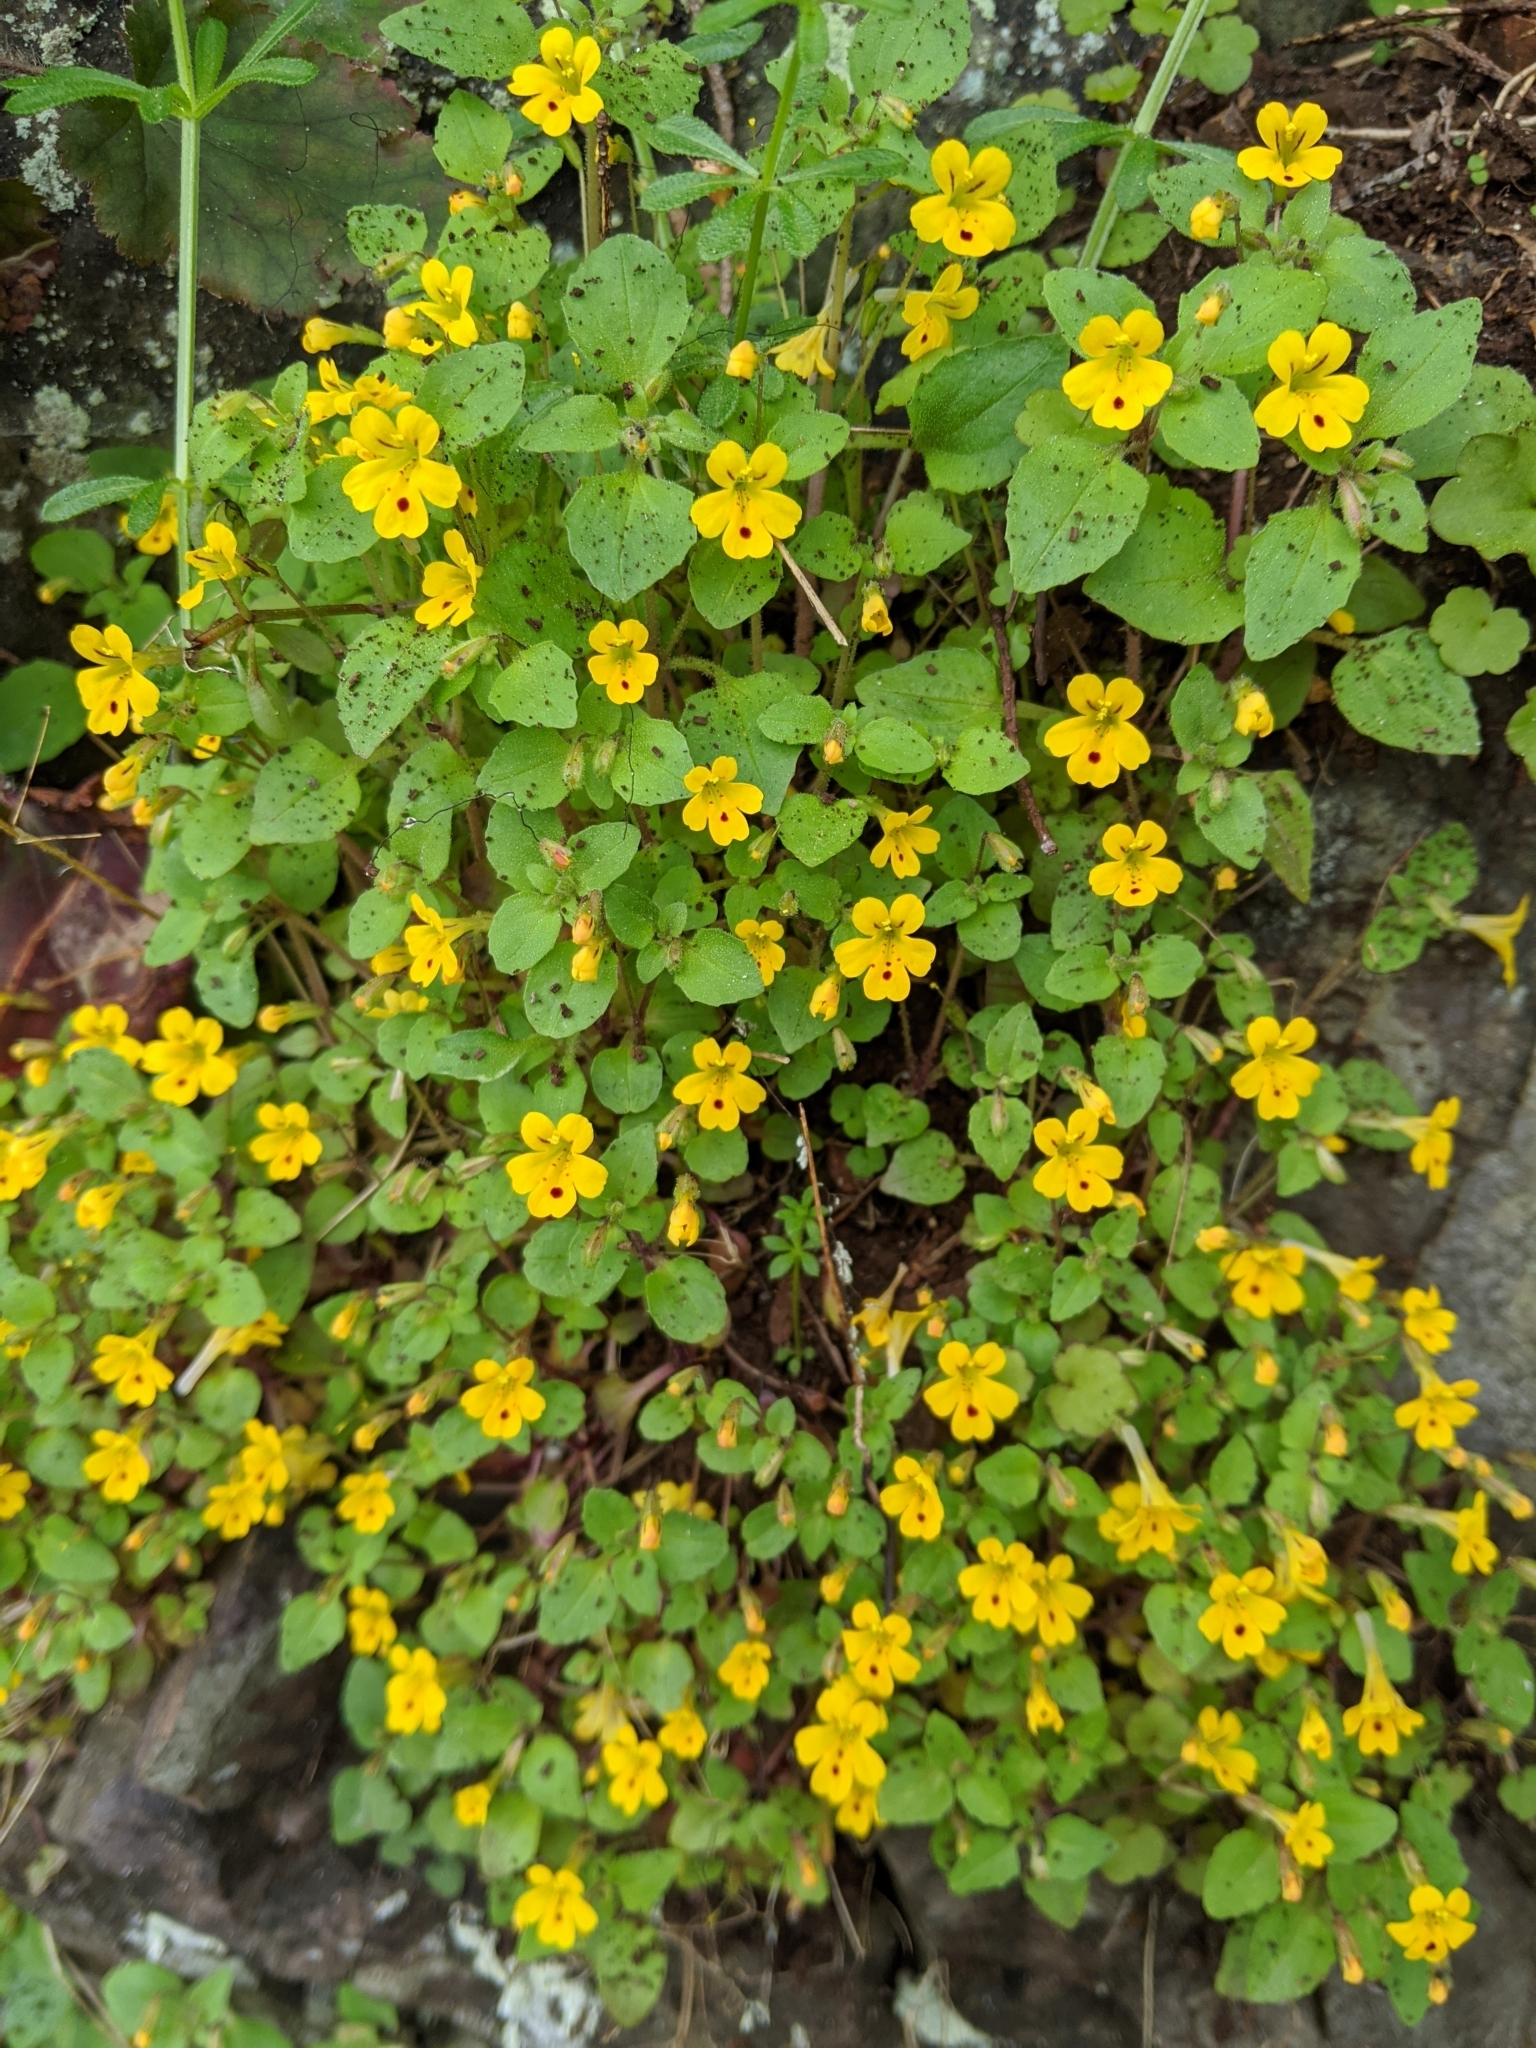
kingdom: Plantae
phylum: Tracheophyta
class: Magnoliopsida
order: Lamiales
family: Phrymaceae
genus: Erythranthe
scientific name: Erythranthe alsinoides
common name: Chickweed monkeyflower
